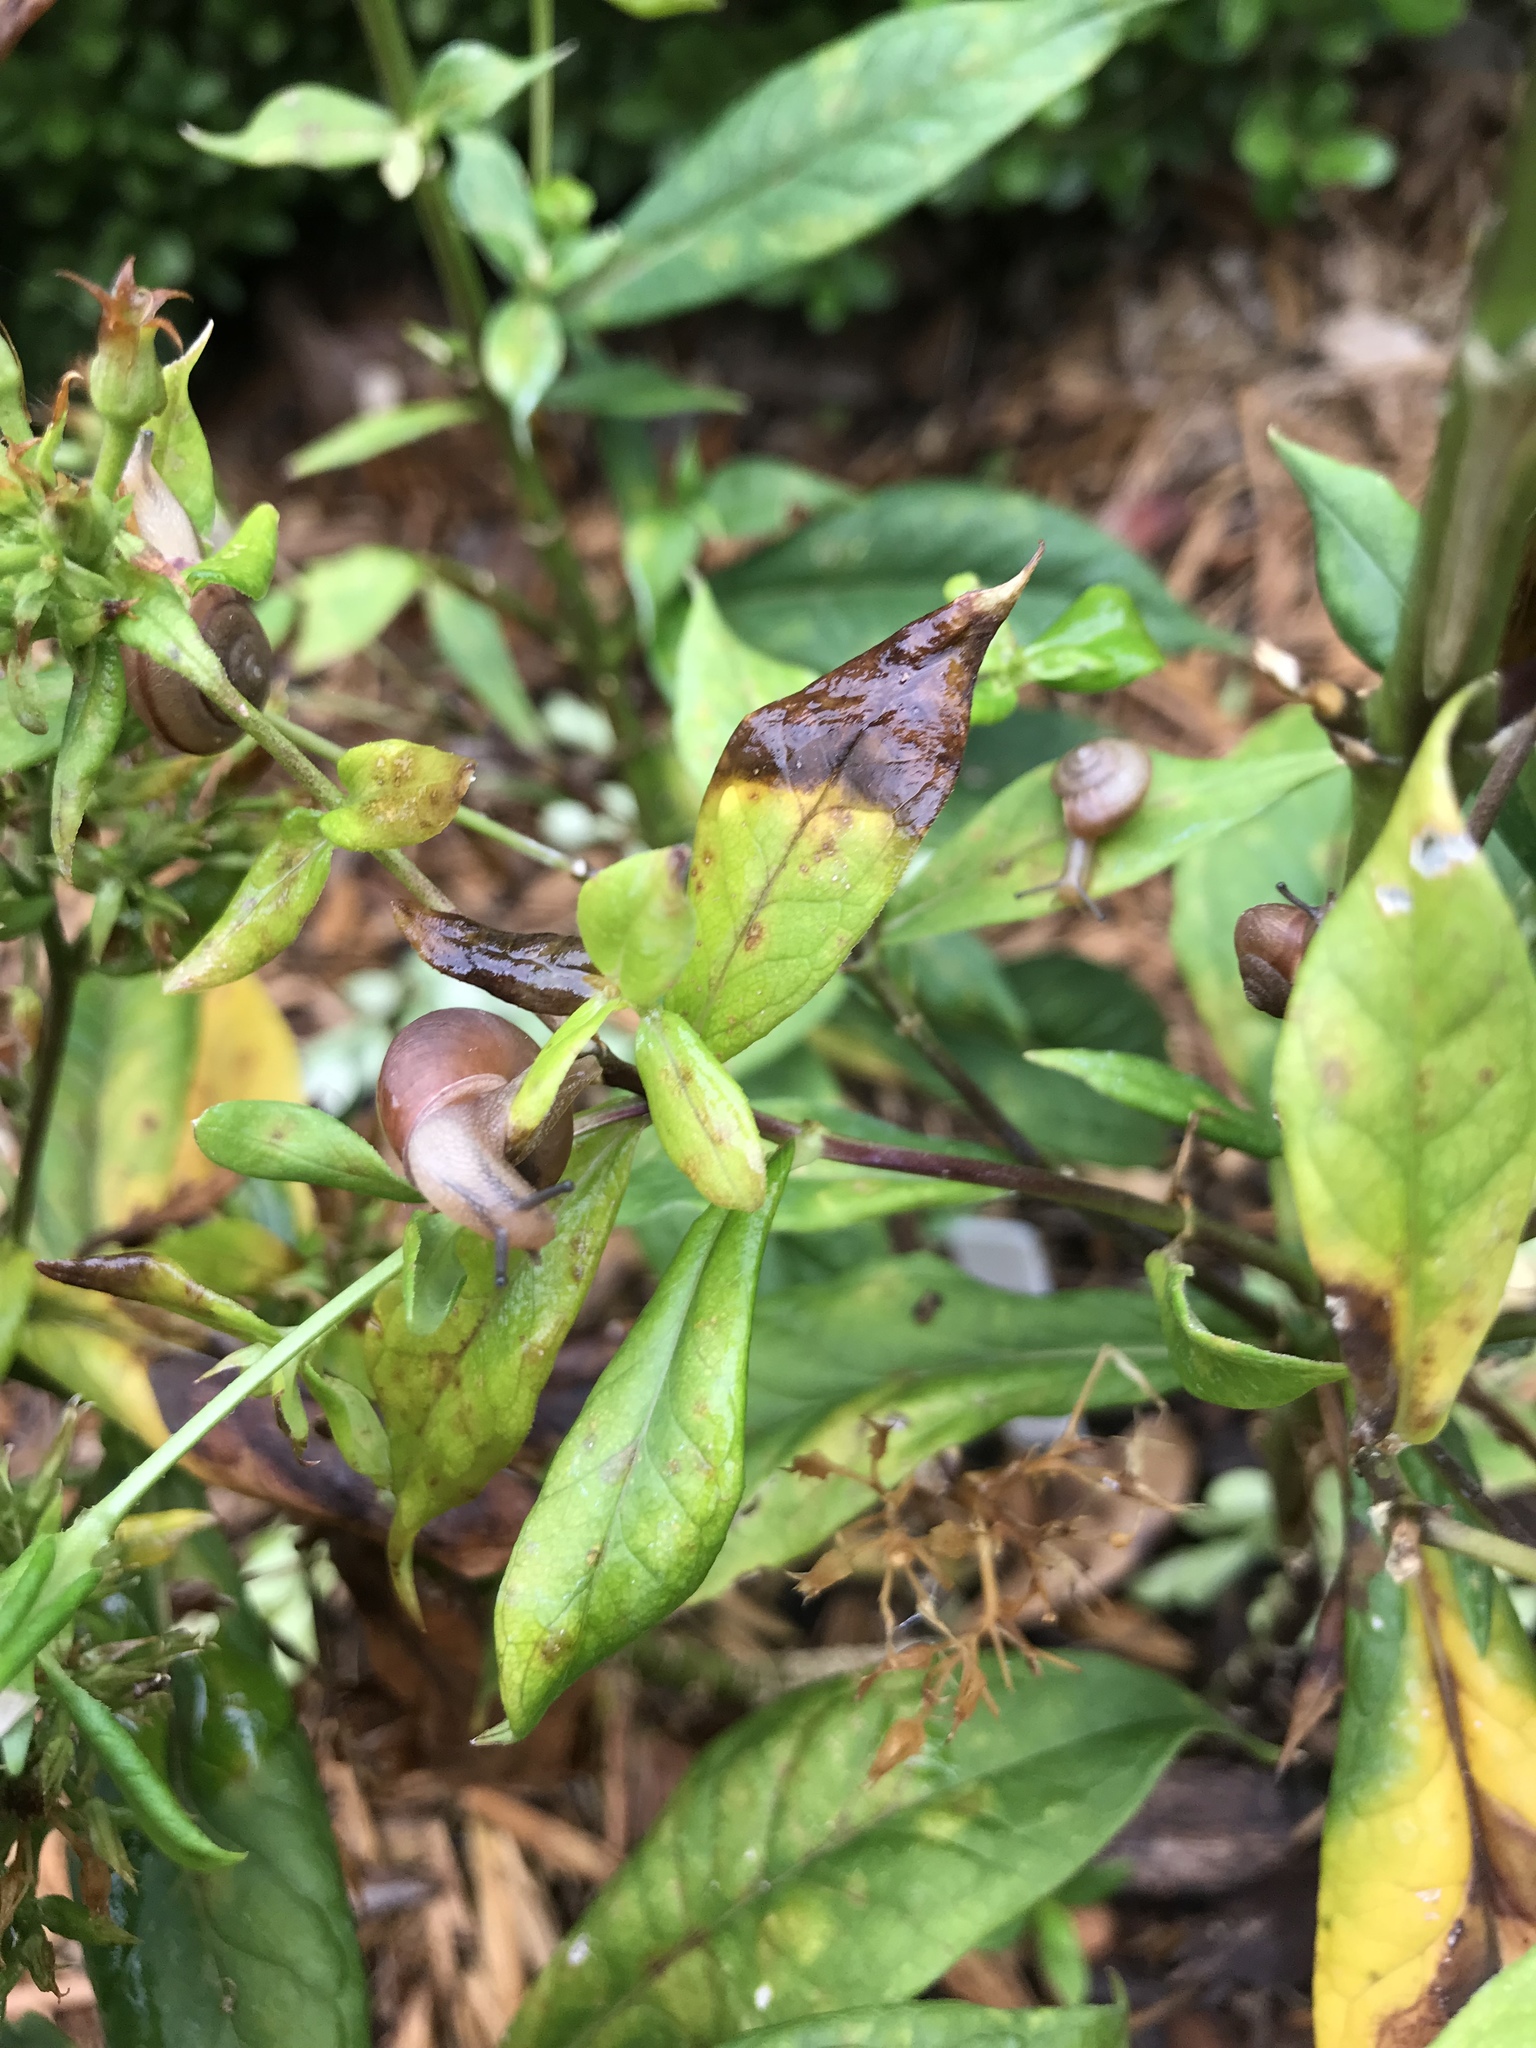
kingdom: Animalia
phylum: Mollusca
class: Gastropoda
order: Stylommatophora
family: Camaenidae
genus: Bradybaena
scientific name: Bradybaena similaris
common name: Asian trampsnail
